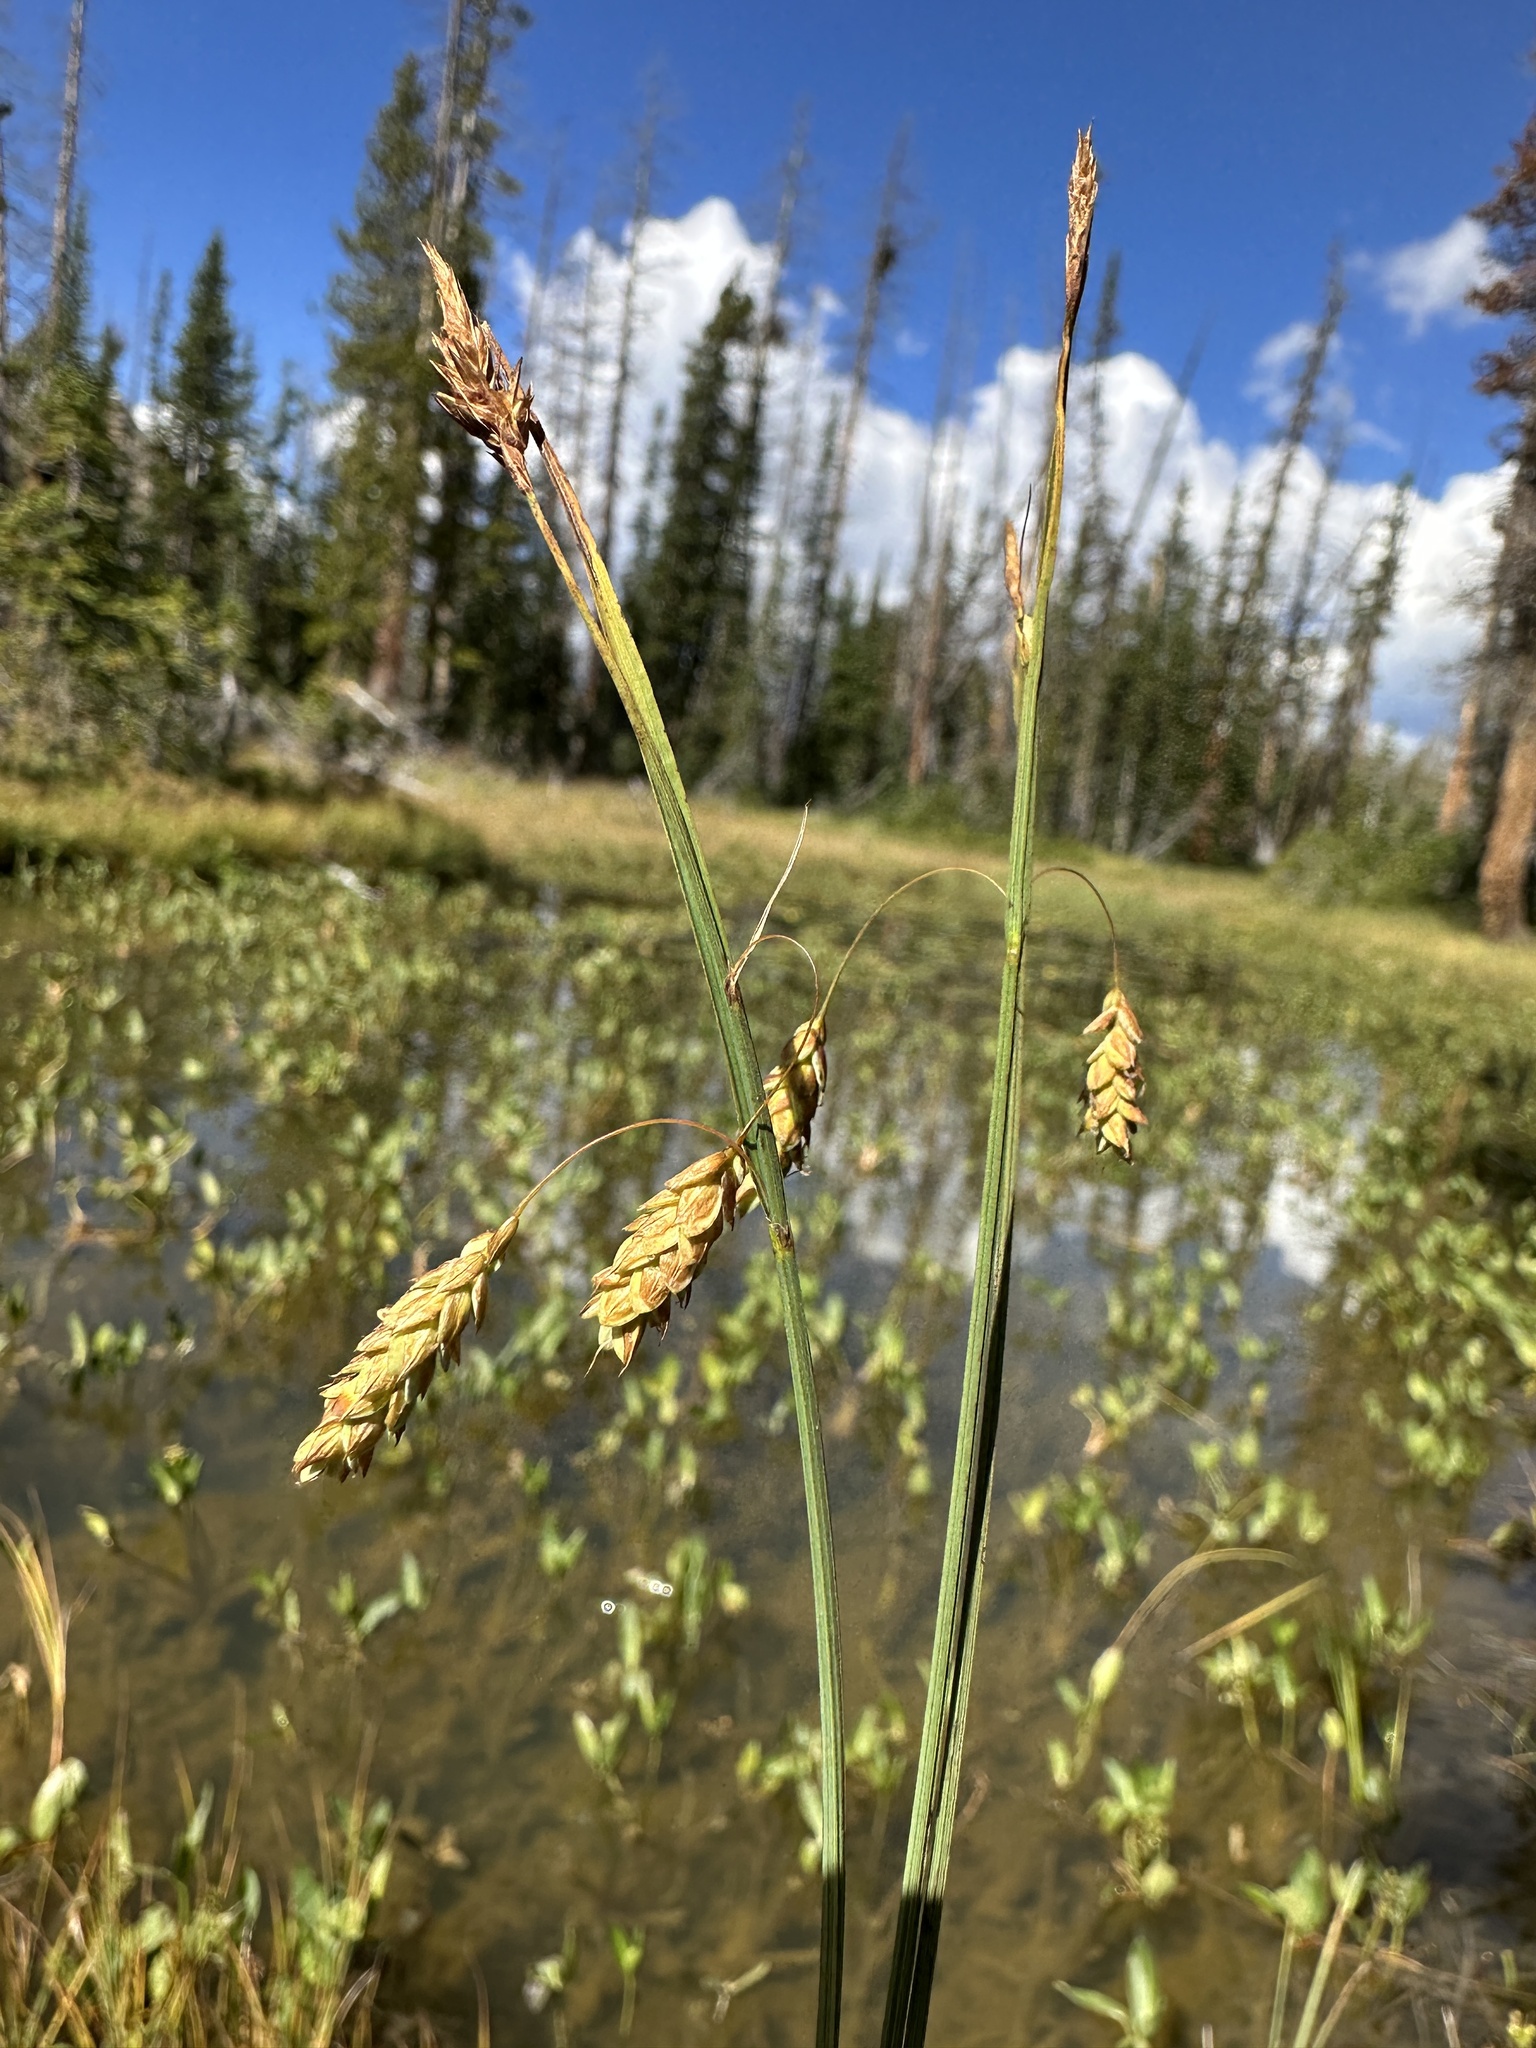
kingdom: Plantae
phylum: Tracheophyta
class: Liliopsida
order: Poales
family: Cyperaceae
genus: Carex
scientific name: Carex limosa
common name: Bog sedge
